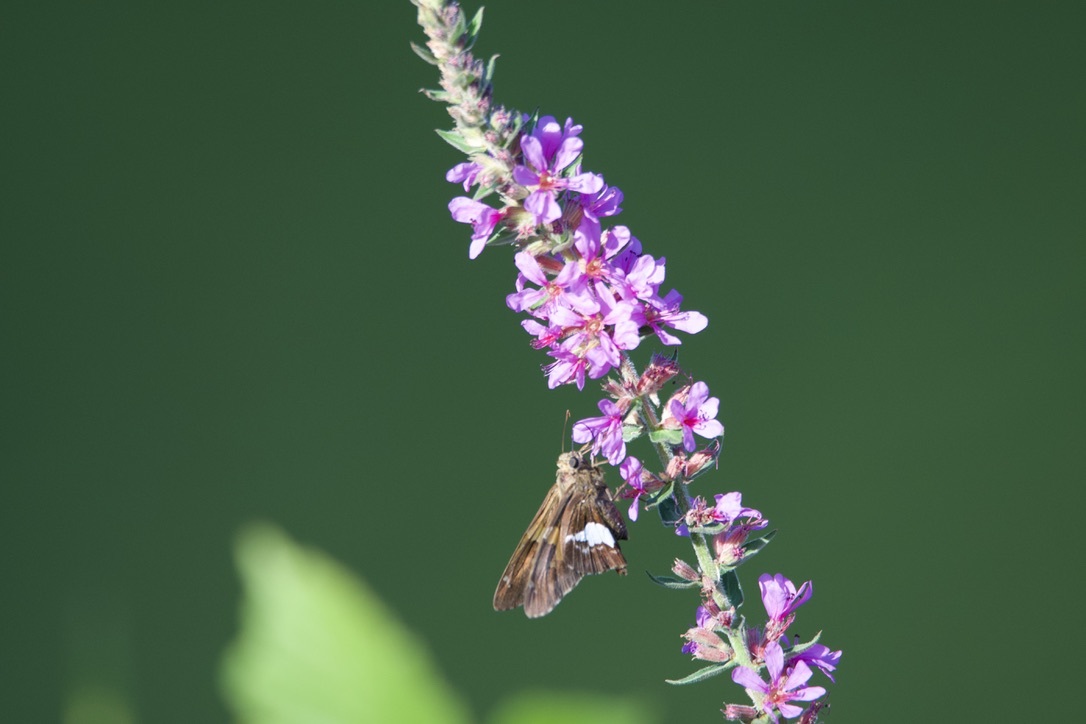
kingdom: Animalia
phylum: Arthropoda
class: Insecta
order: Lepidoptera
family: Hesperiidae
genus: Epargyreus
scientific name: Epargyreus clarus
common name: Silver-spotted skipper
